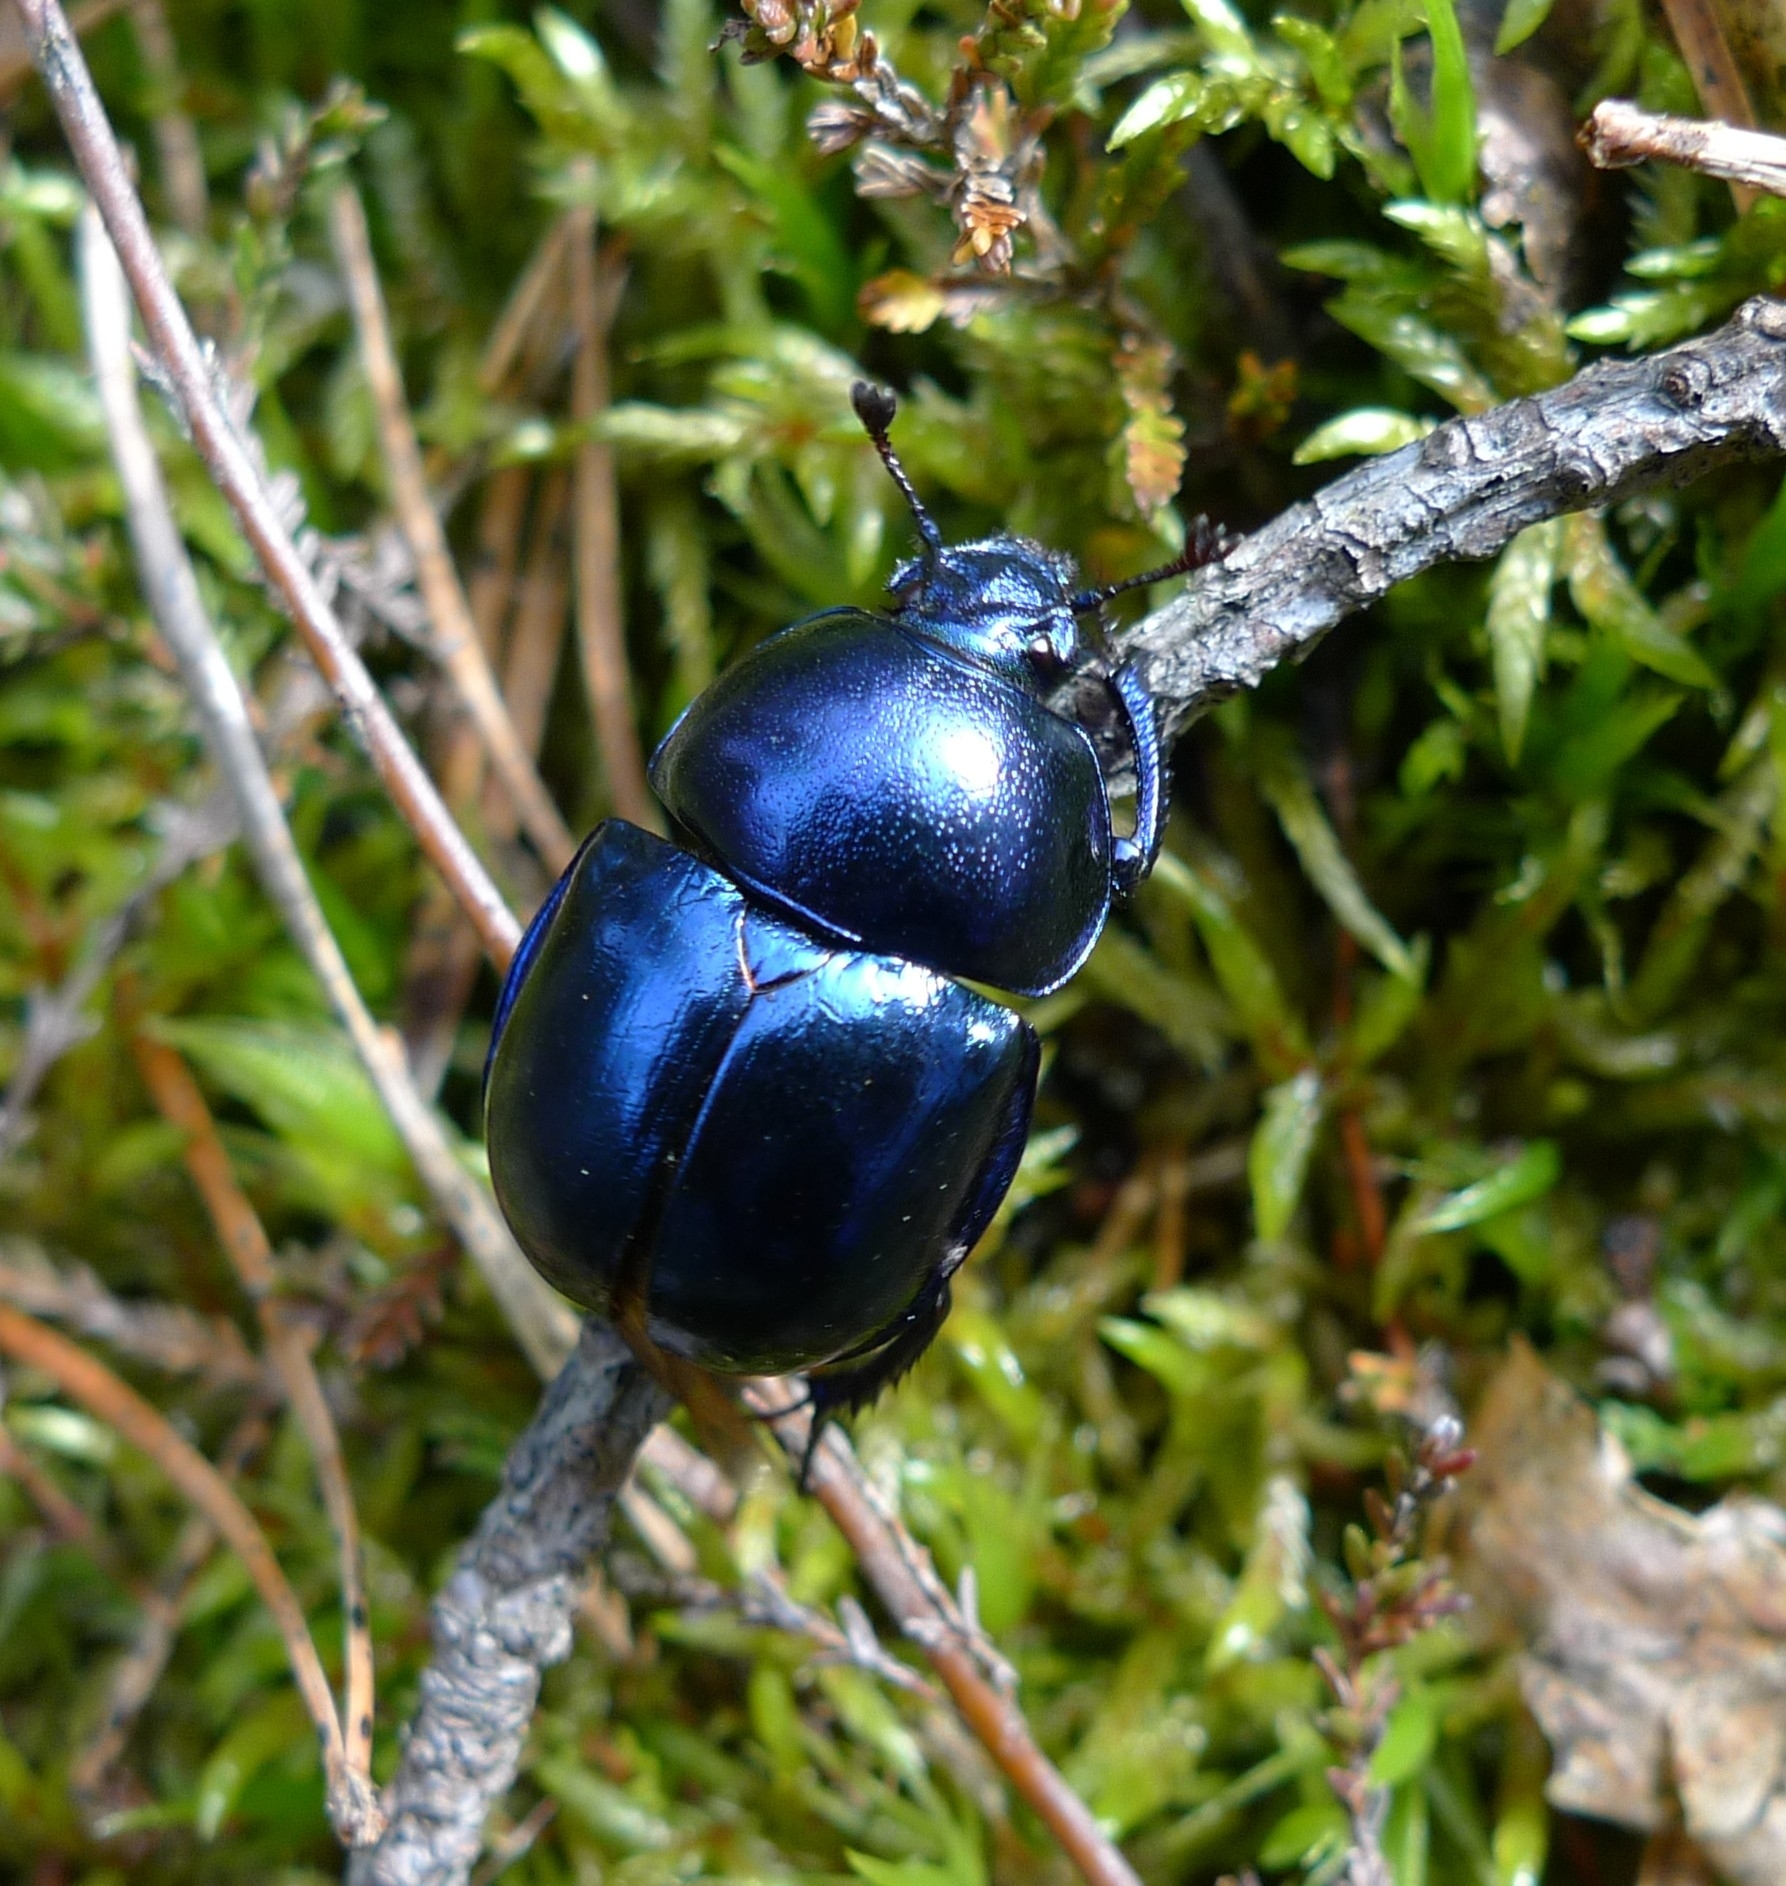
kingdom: Animalia
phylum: Arthropoda
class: Insecta
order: Coleoptera
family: Geotrupidae
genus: Trypocopris
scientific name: Trypocopris vernalis
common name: Spring dumbledor
